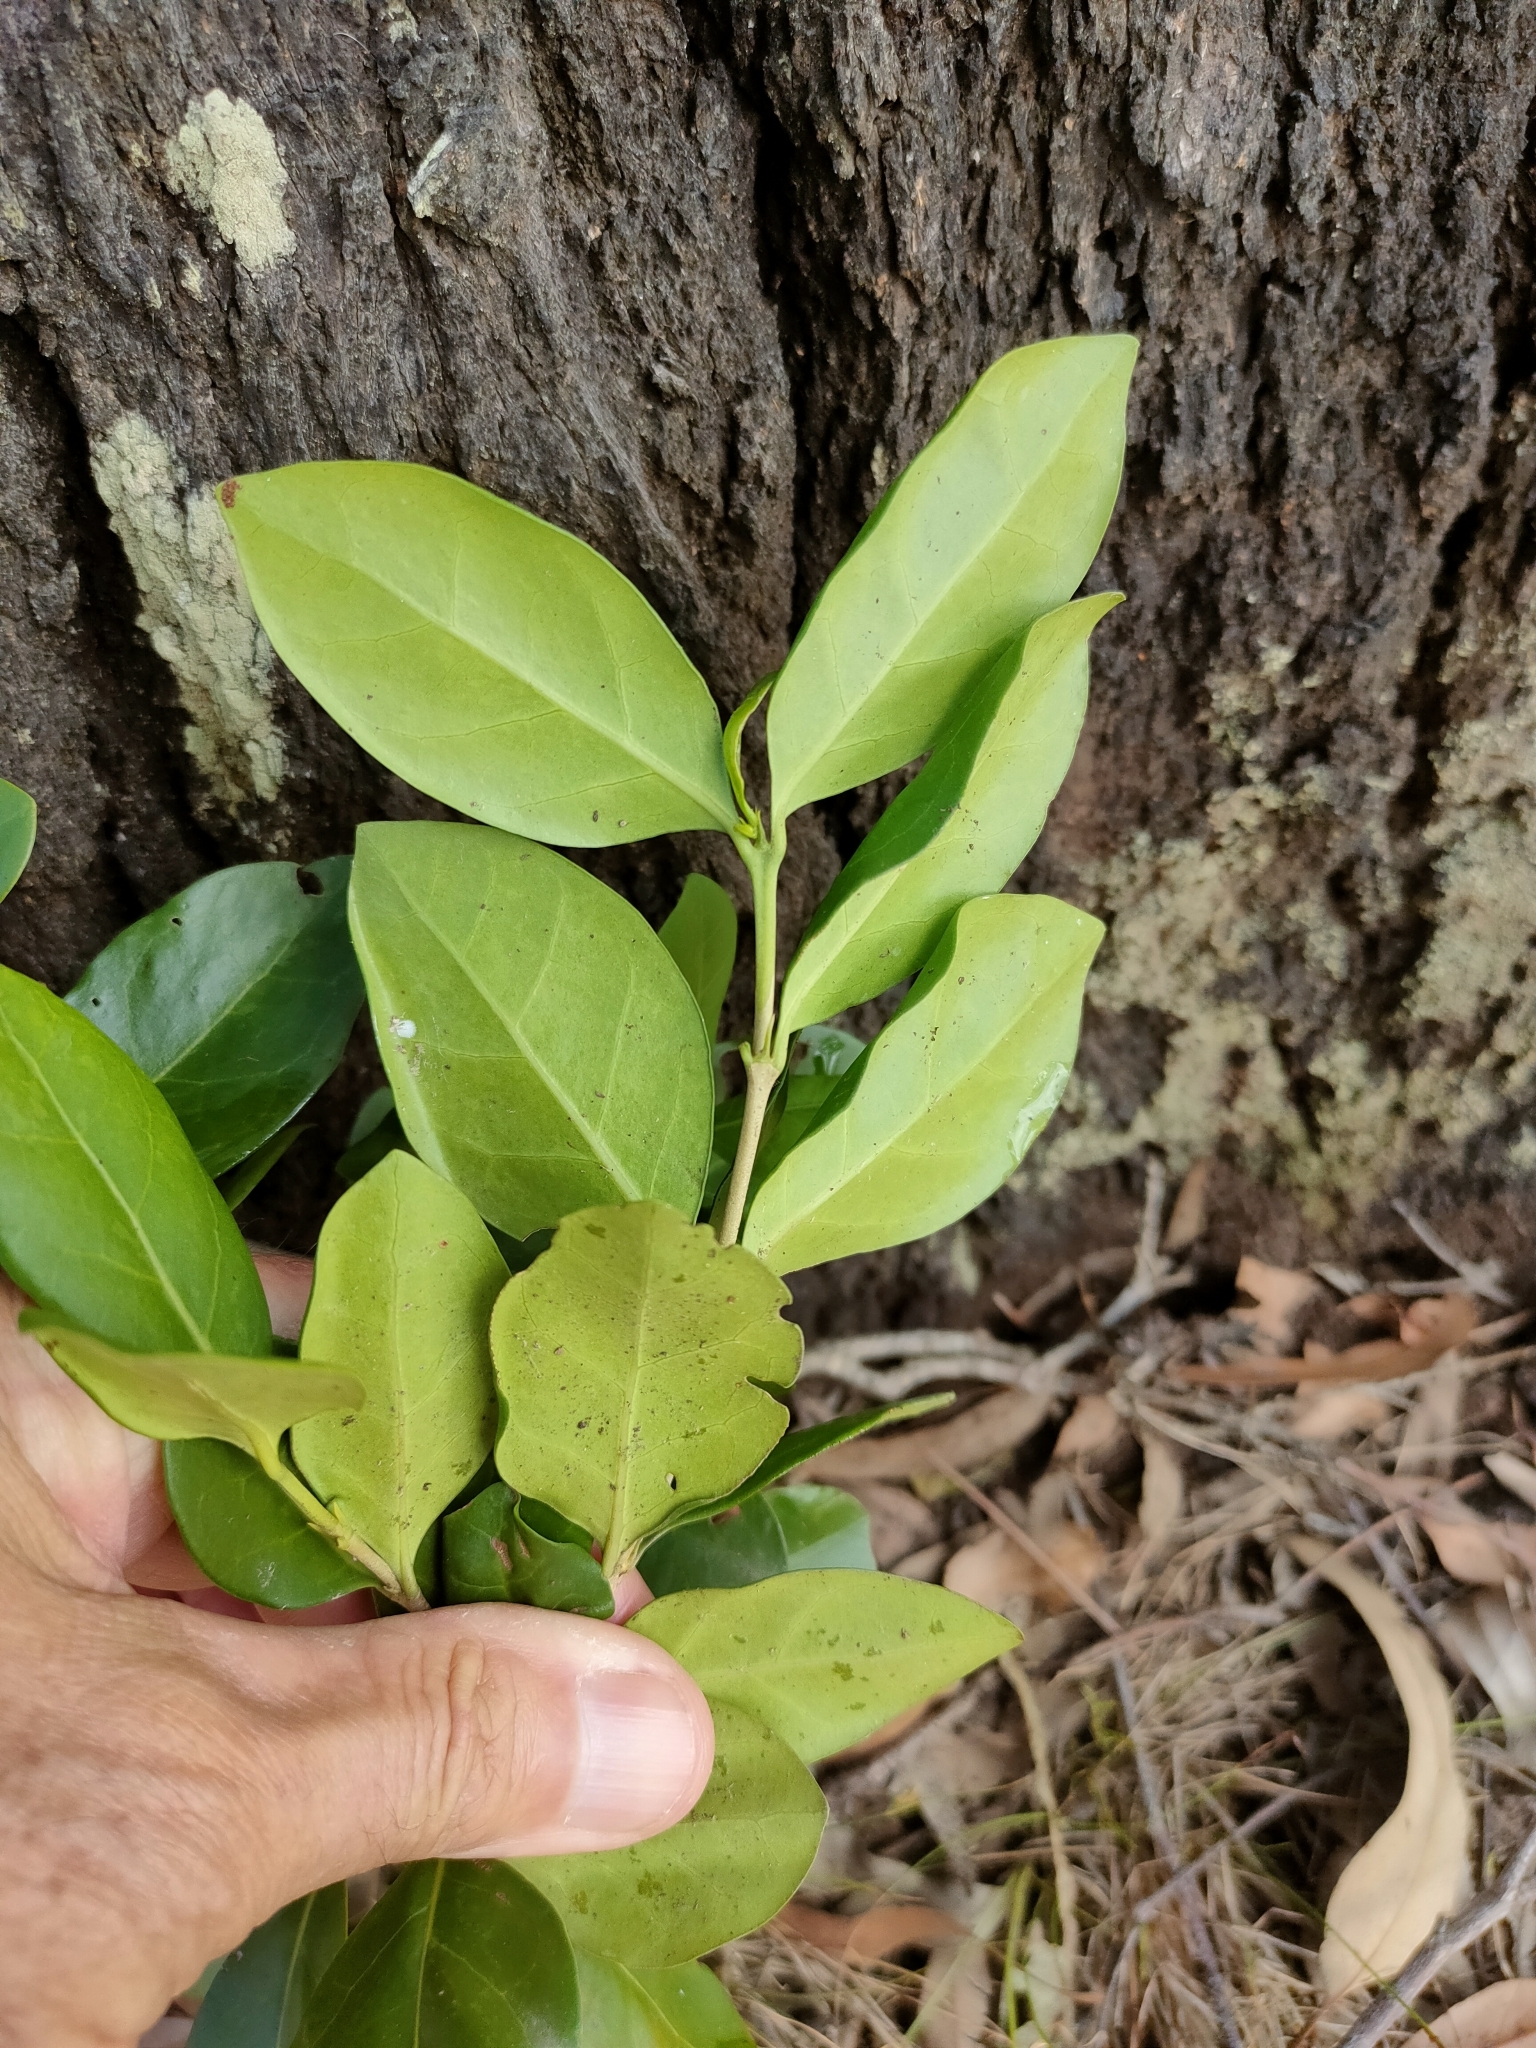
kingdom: Plantae
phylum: Tracheophyta
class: Magnoliopsida
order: Gentianales
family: Rubiaceae
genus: Cyclophyllum
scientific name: Cyclophyllum coprosmoides
